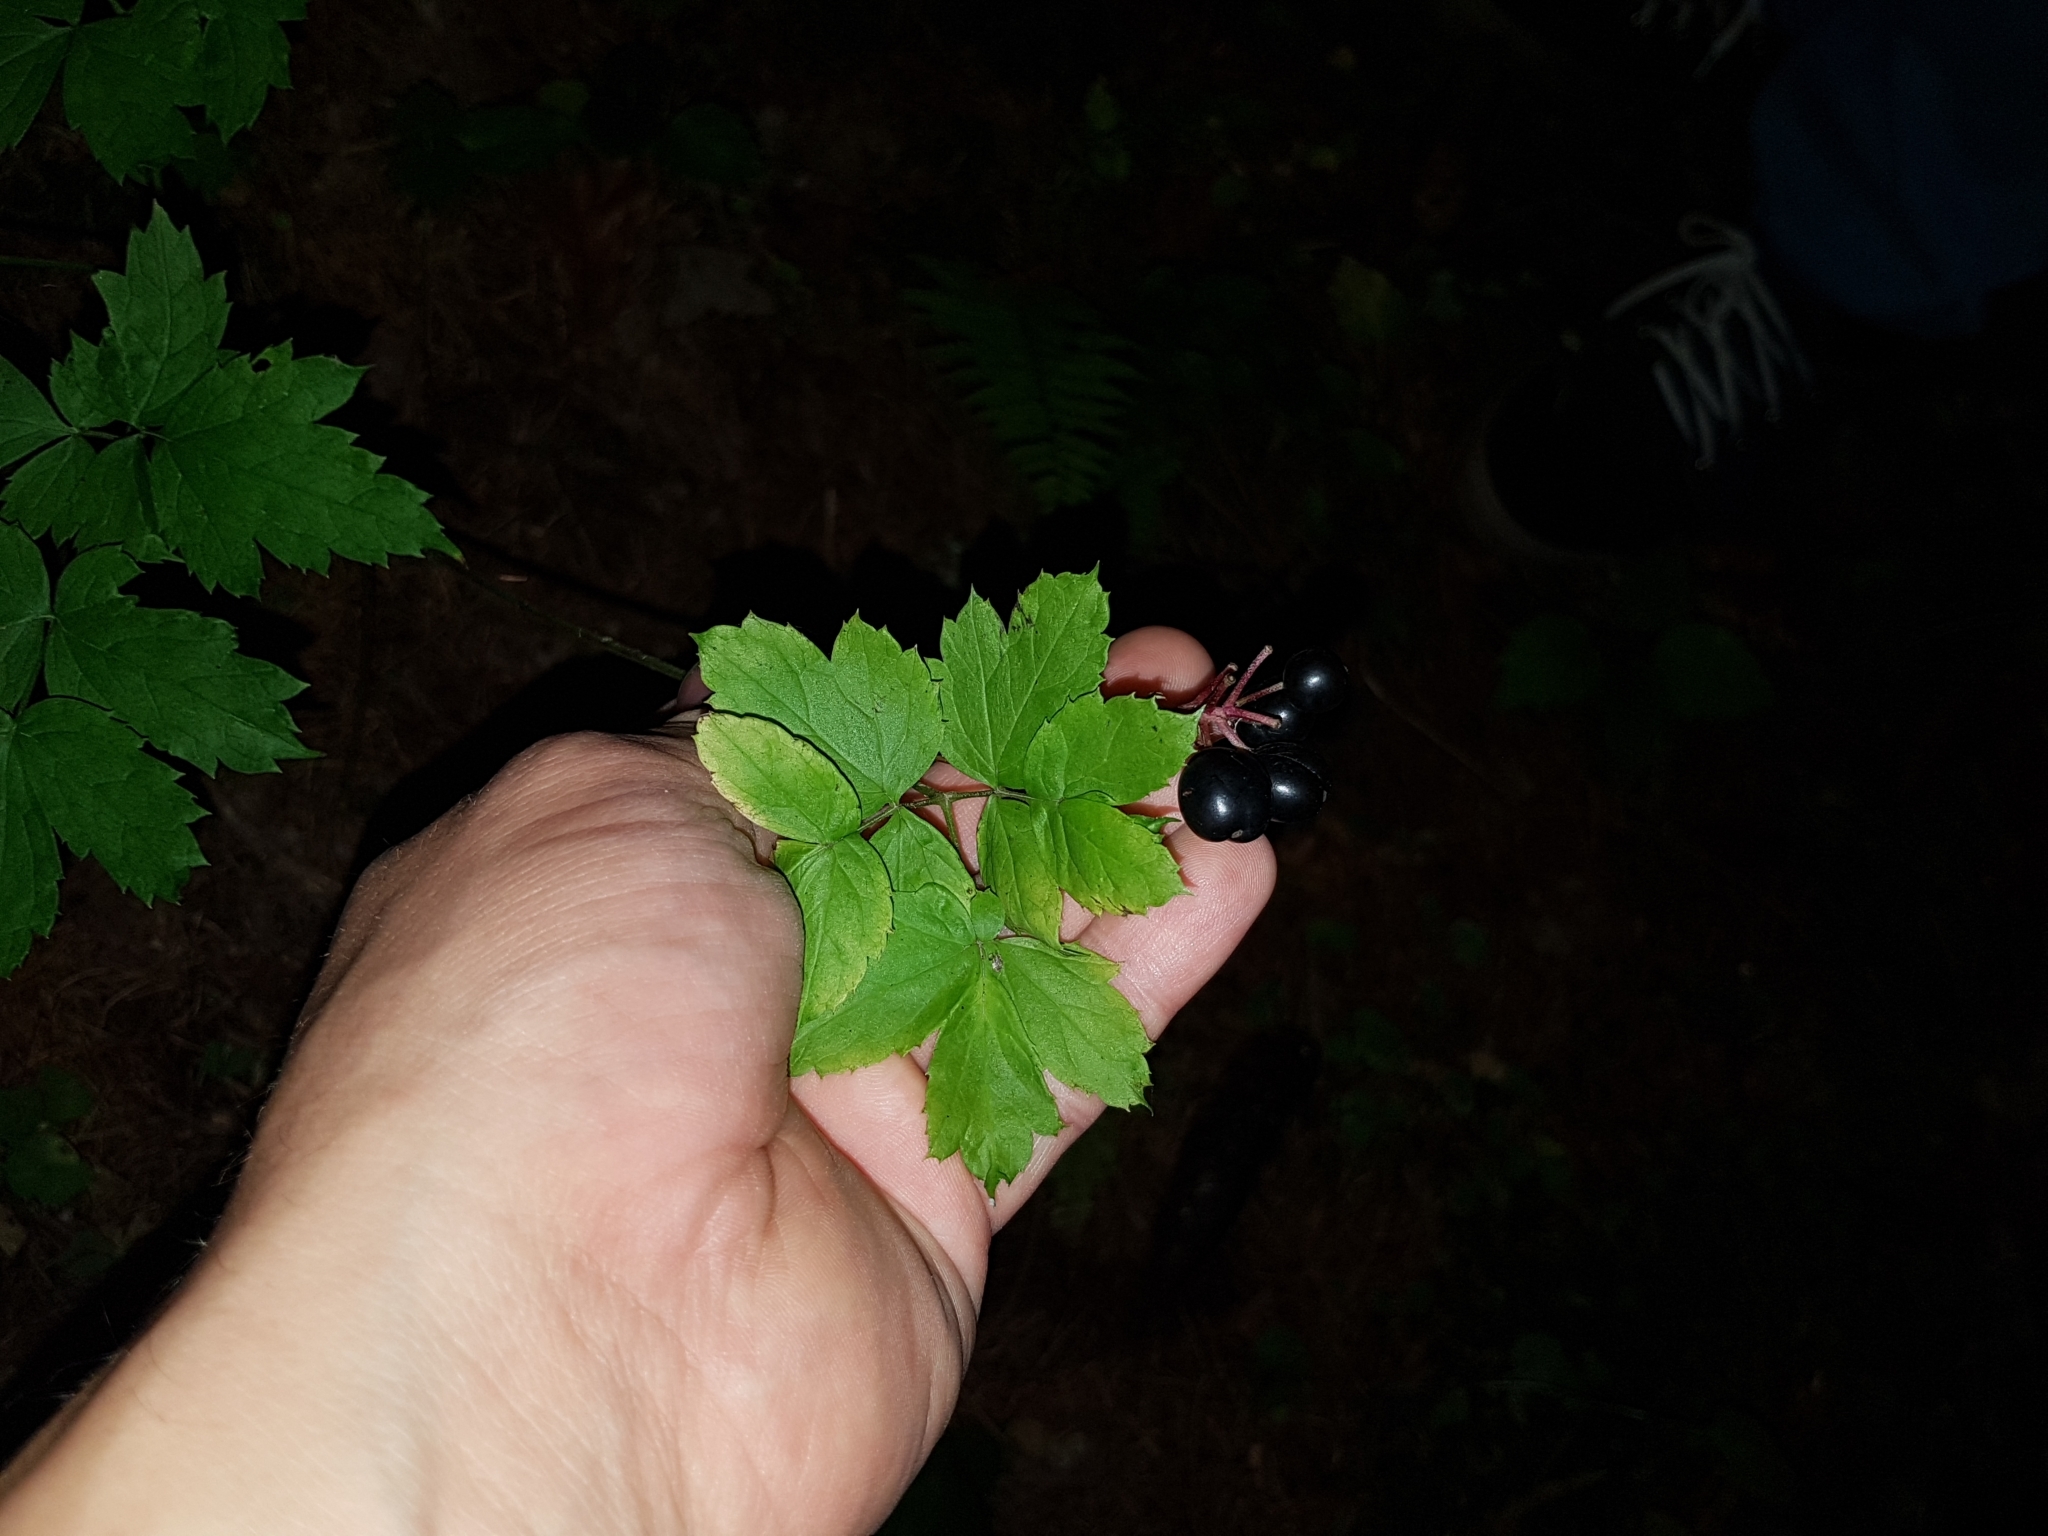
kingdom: Plantae
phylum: Tracheophyta
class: Magnoliopsida
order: Ranunculales
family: Ranunculaceae
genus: Actaea
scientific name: Actaea spicata
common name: Baneberry
